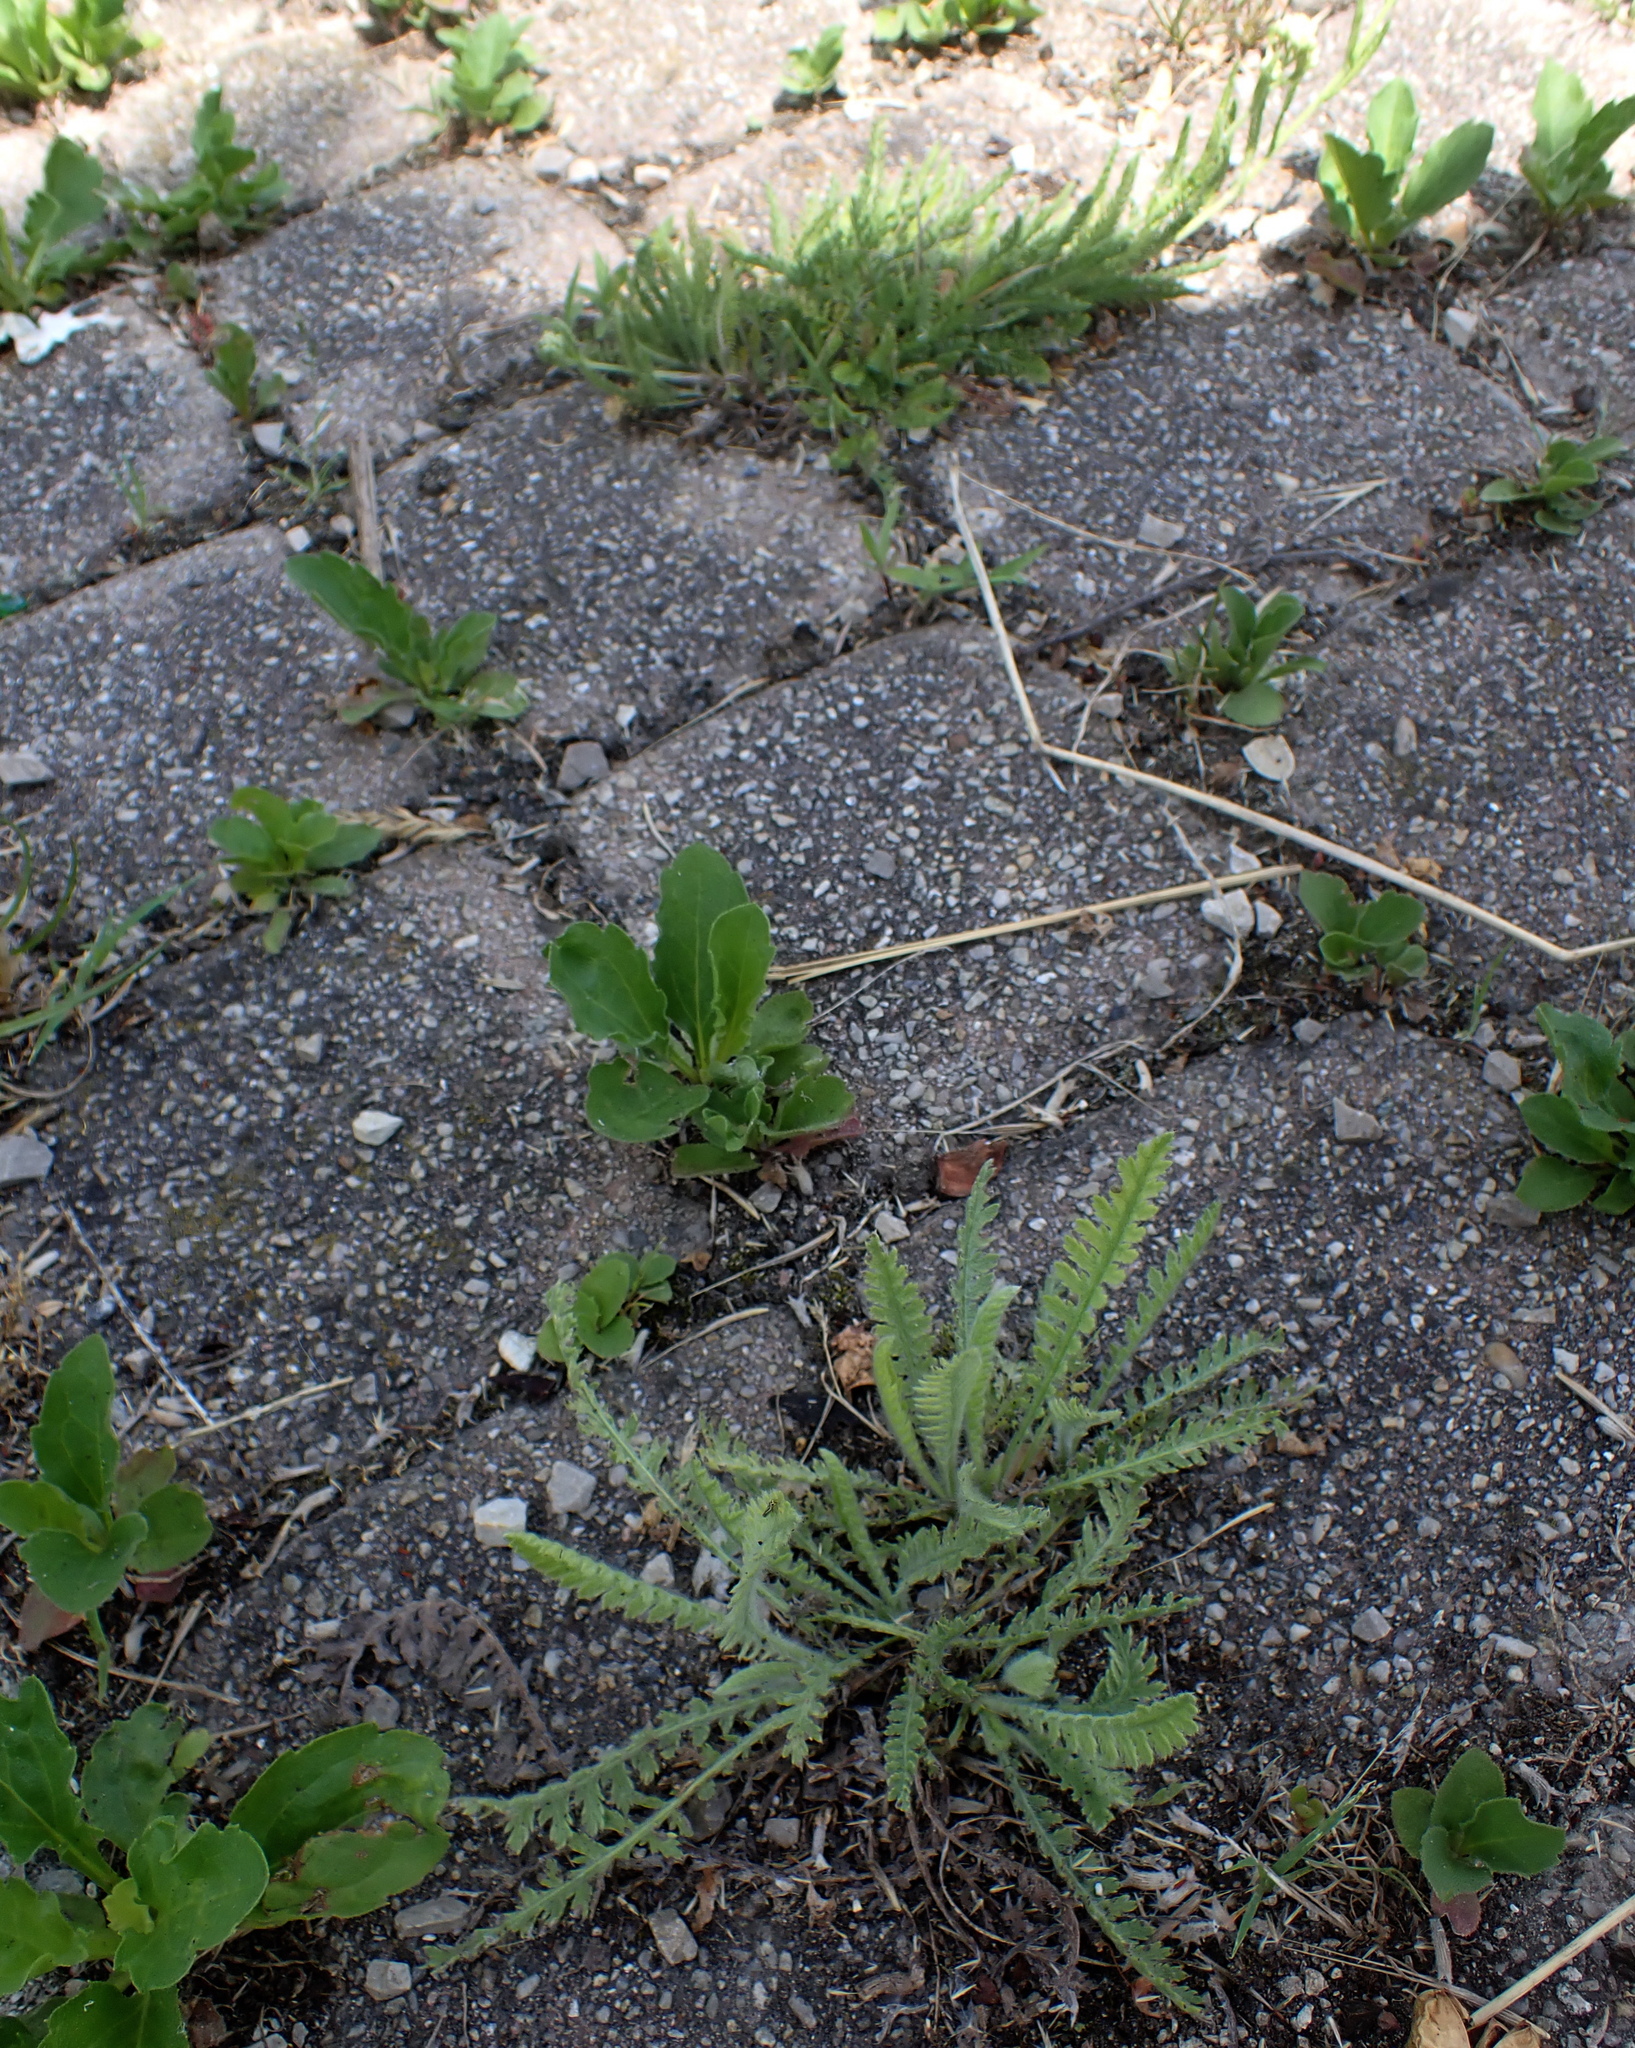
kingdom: Plantae
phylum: Tracheophyta
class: Magnoliopsida
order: Asterales
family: Asteraceae
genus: Achillea
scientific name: Achillea filipendulina
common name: Fernleaf yarrow
